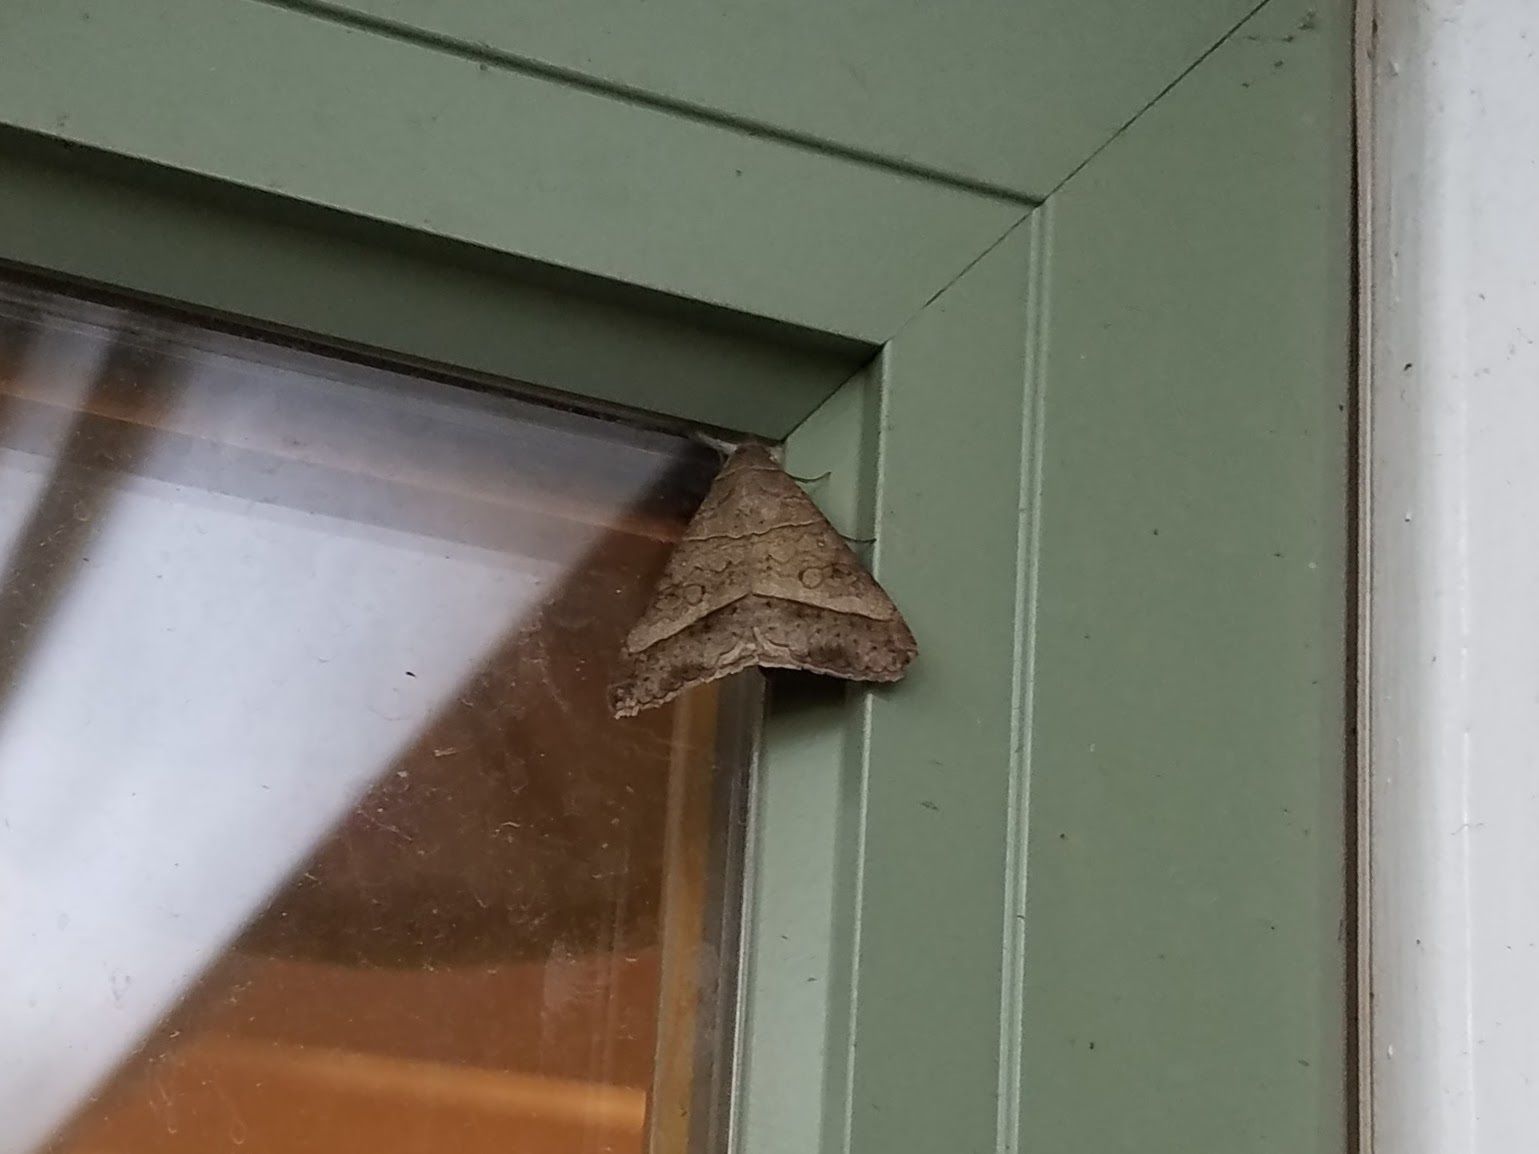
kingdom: Animalia
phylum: Arthropoda
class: Insecta
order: Lepidoptera
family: Erebidae
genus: Mocis
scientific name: Mocis latipes
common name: Striped grass looper
